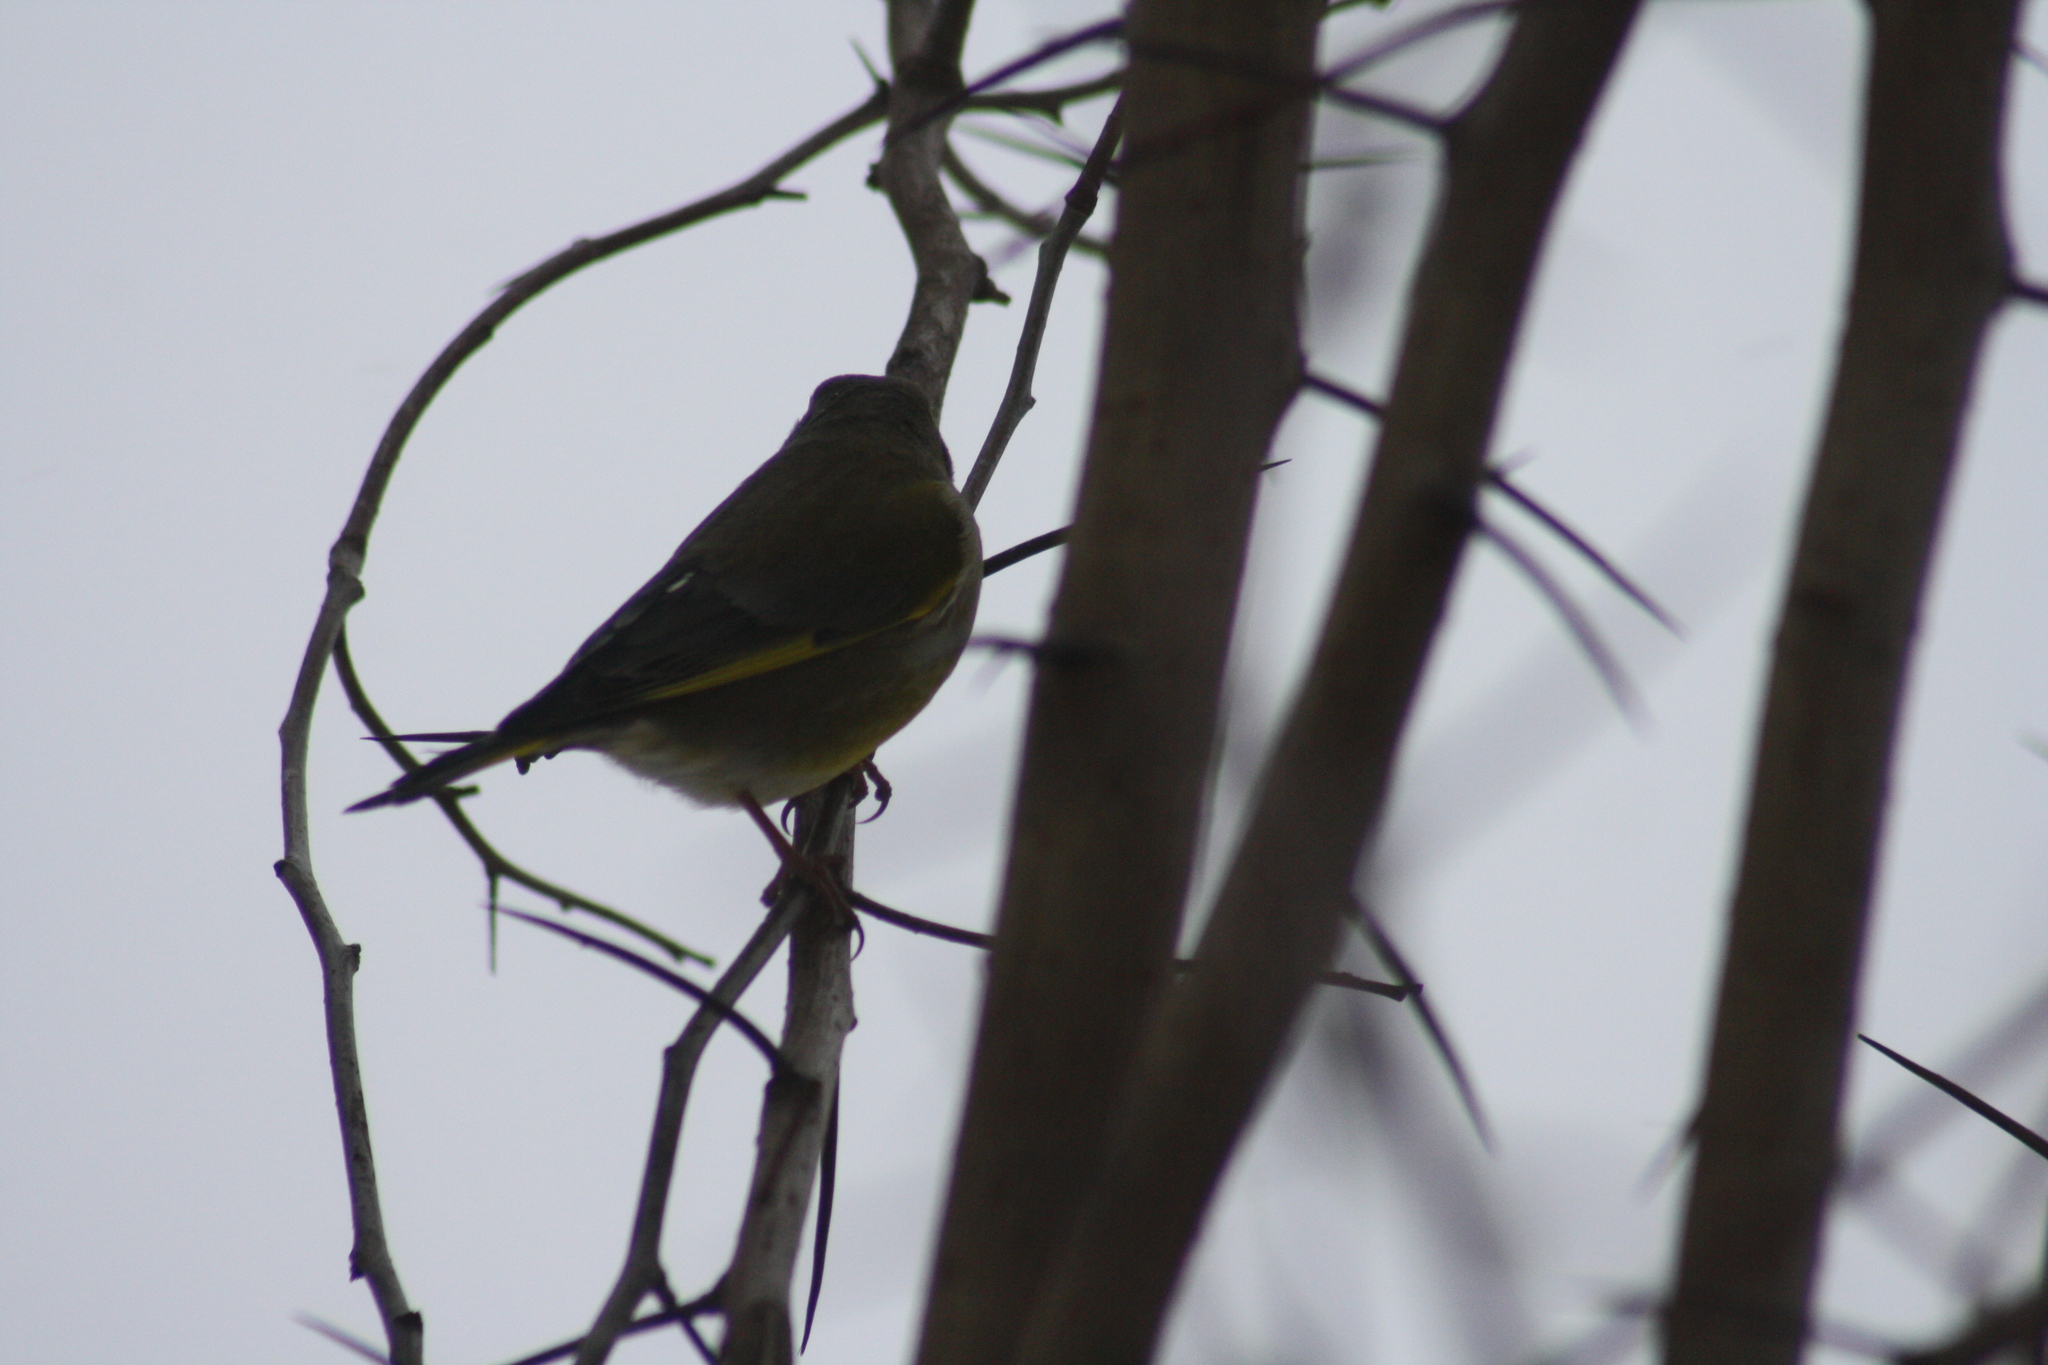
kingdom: Plantae
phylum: Tracheophyta
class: Liliopsida
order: Poales
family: Poaceae
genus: Chloris
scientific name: Chloris chloris
